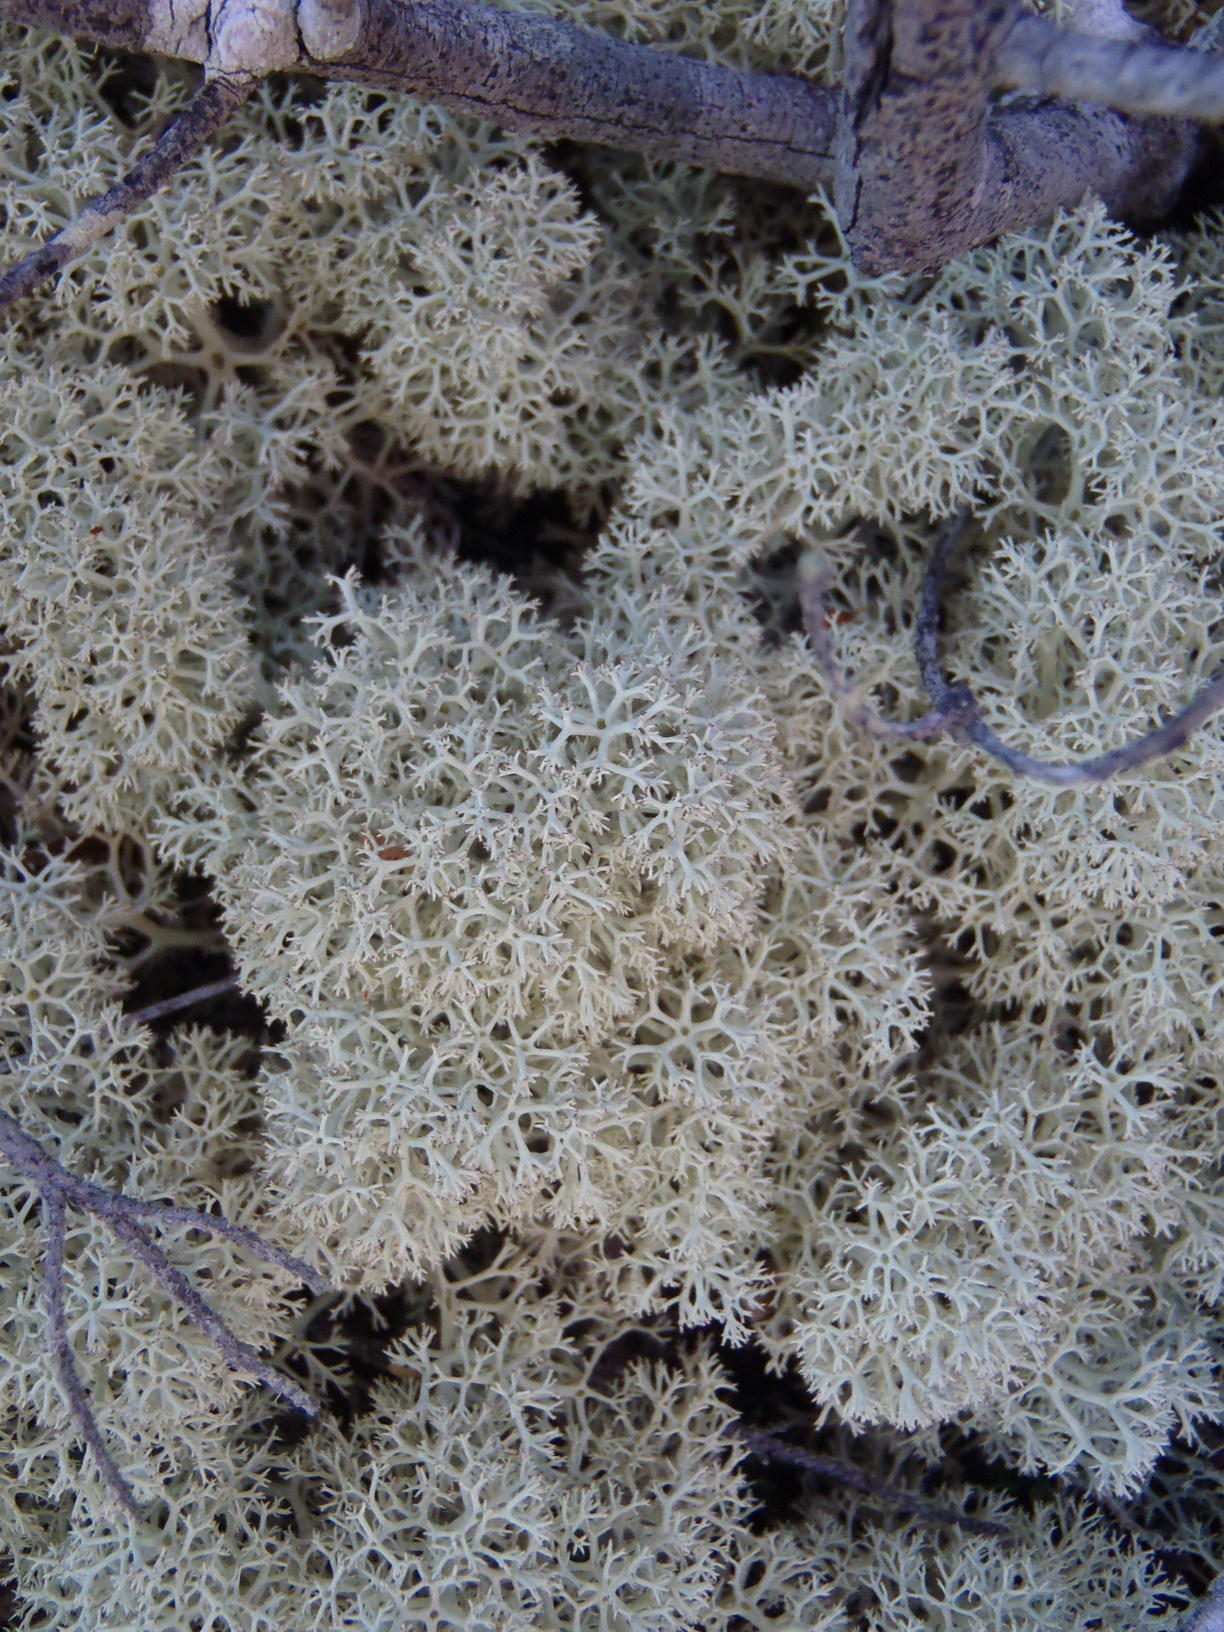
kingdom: Fungi
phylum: Ascomycota
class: Lecanoromycetes
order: Lecanorales
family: Cladoniaceae
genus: Cladonia
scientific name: Cladonia confusa
